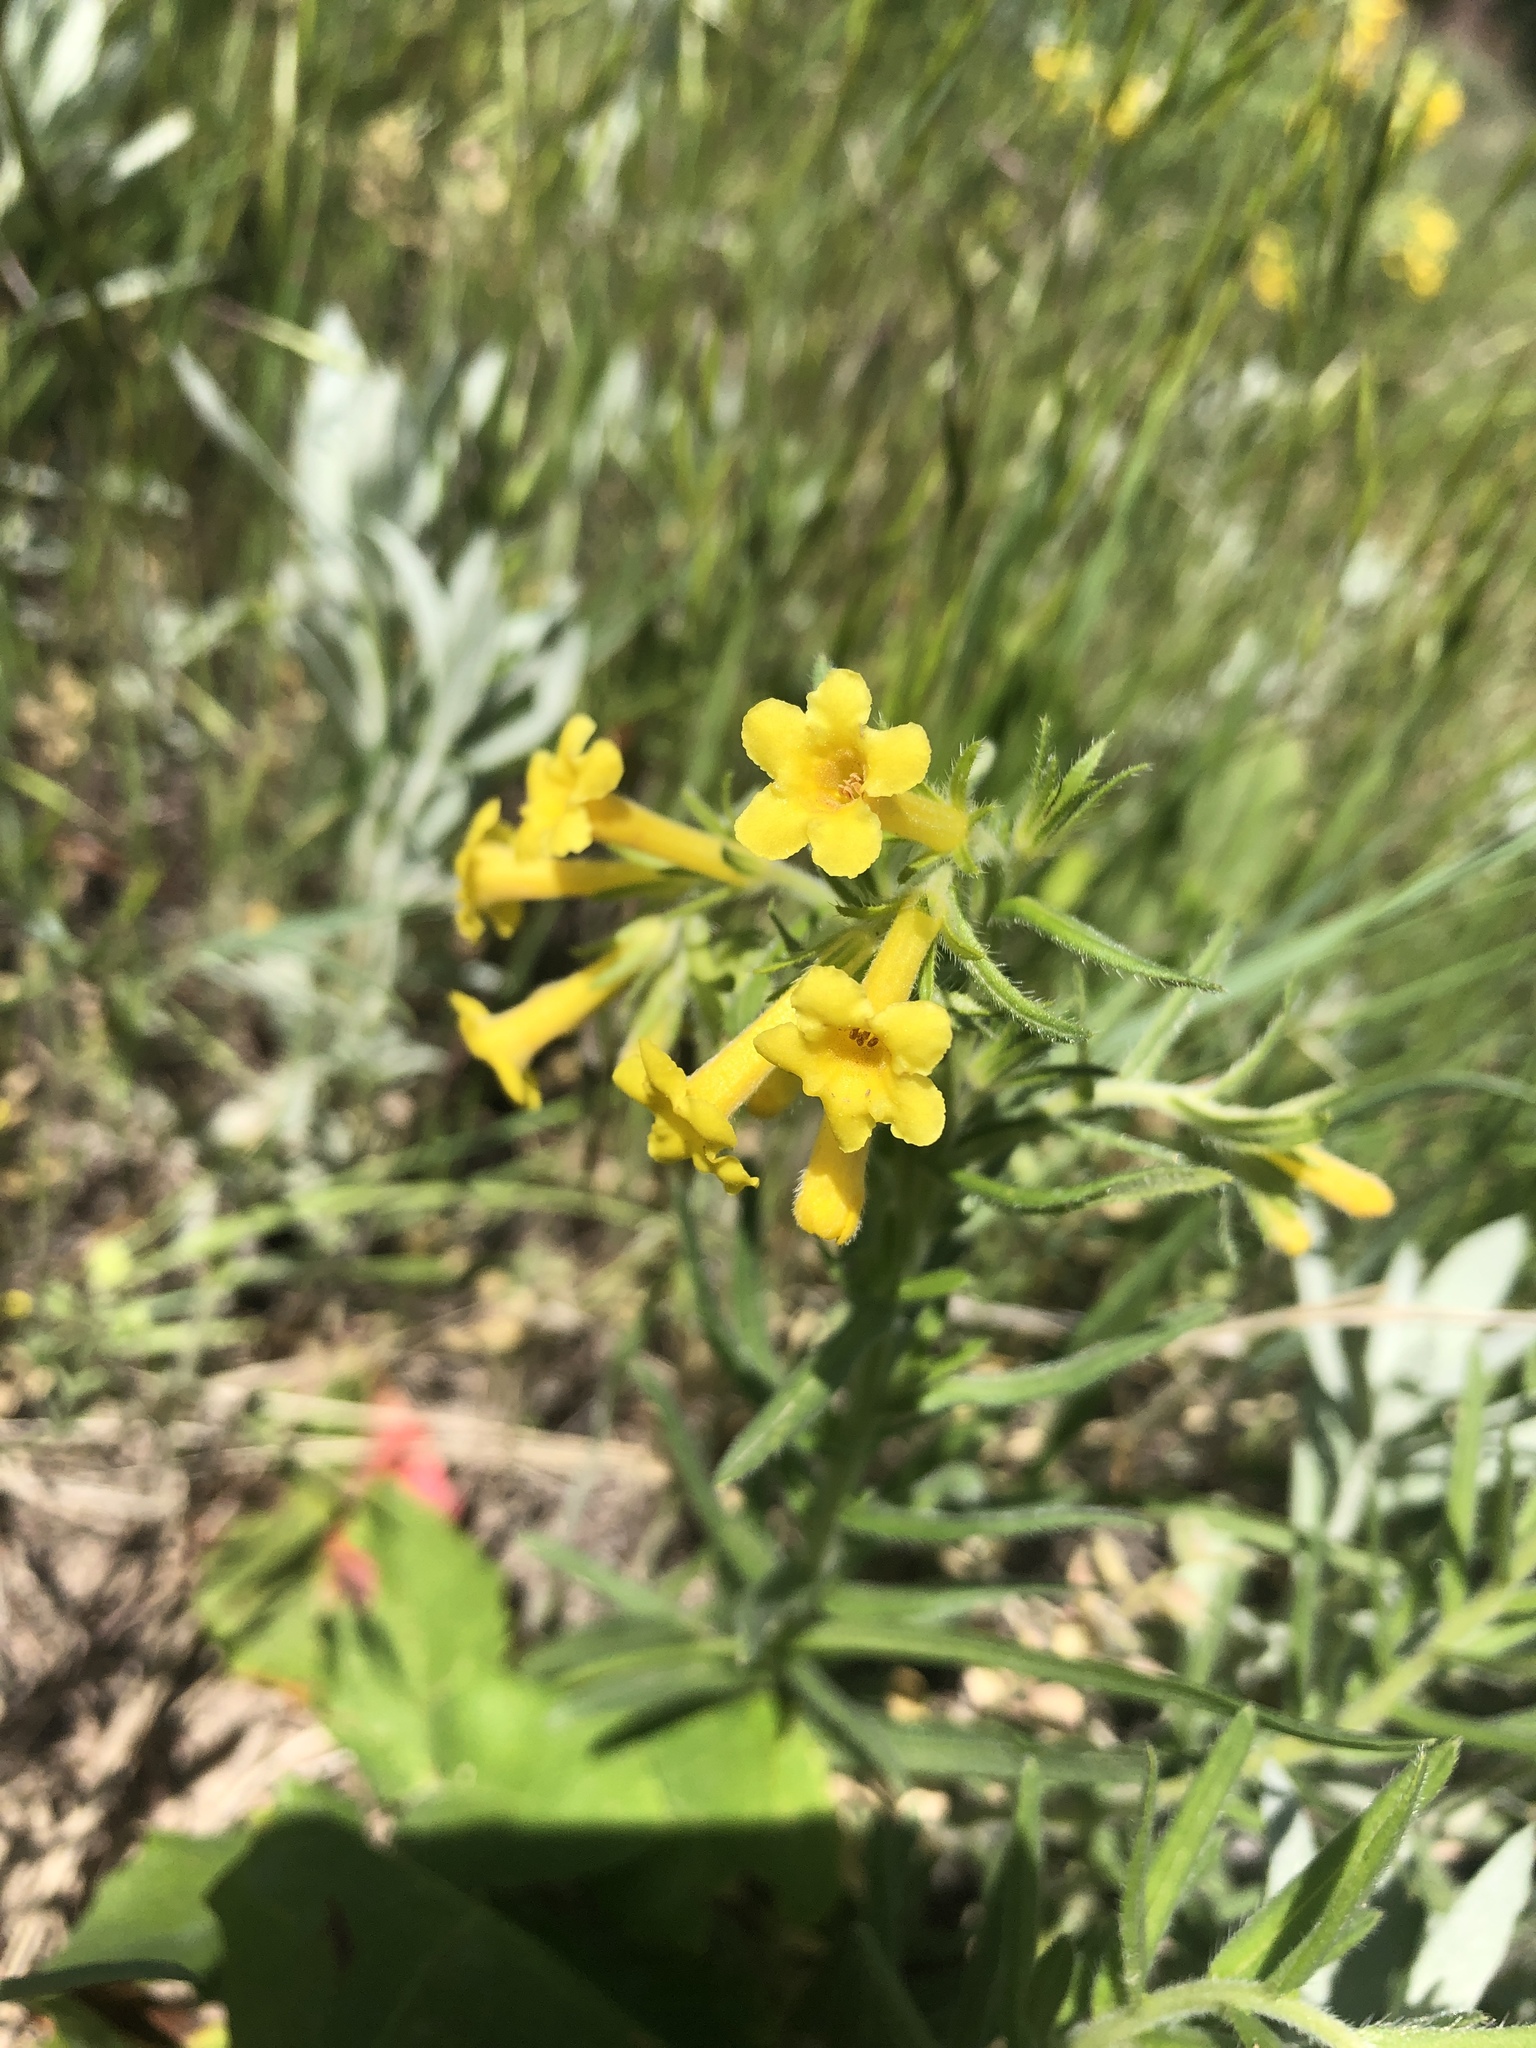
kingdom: Plantae
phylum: Tracheophyta
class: Magnoliopsida
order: Boraginales
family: Boraginaceae
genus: Lithospermum
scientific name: Lithospermum incisum
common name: Fringed gromwell
